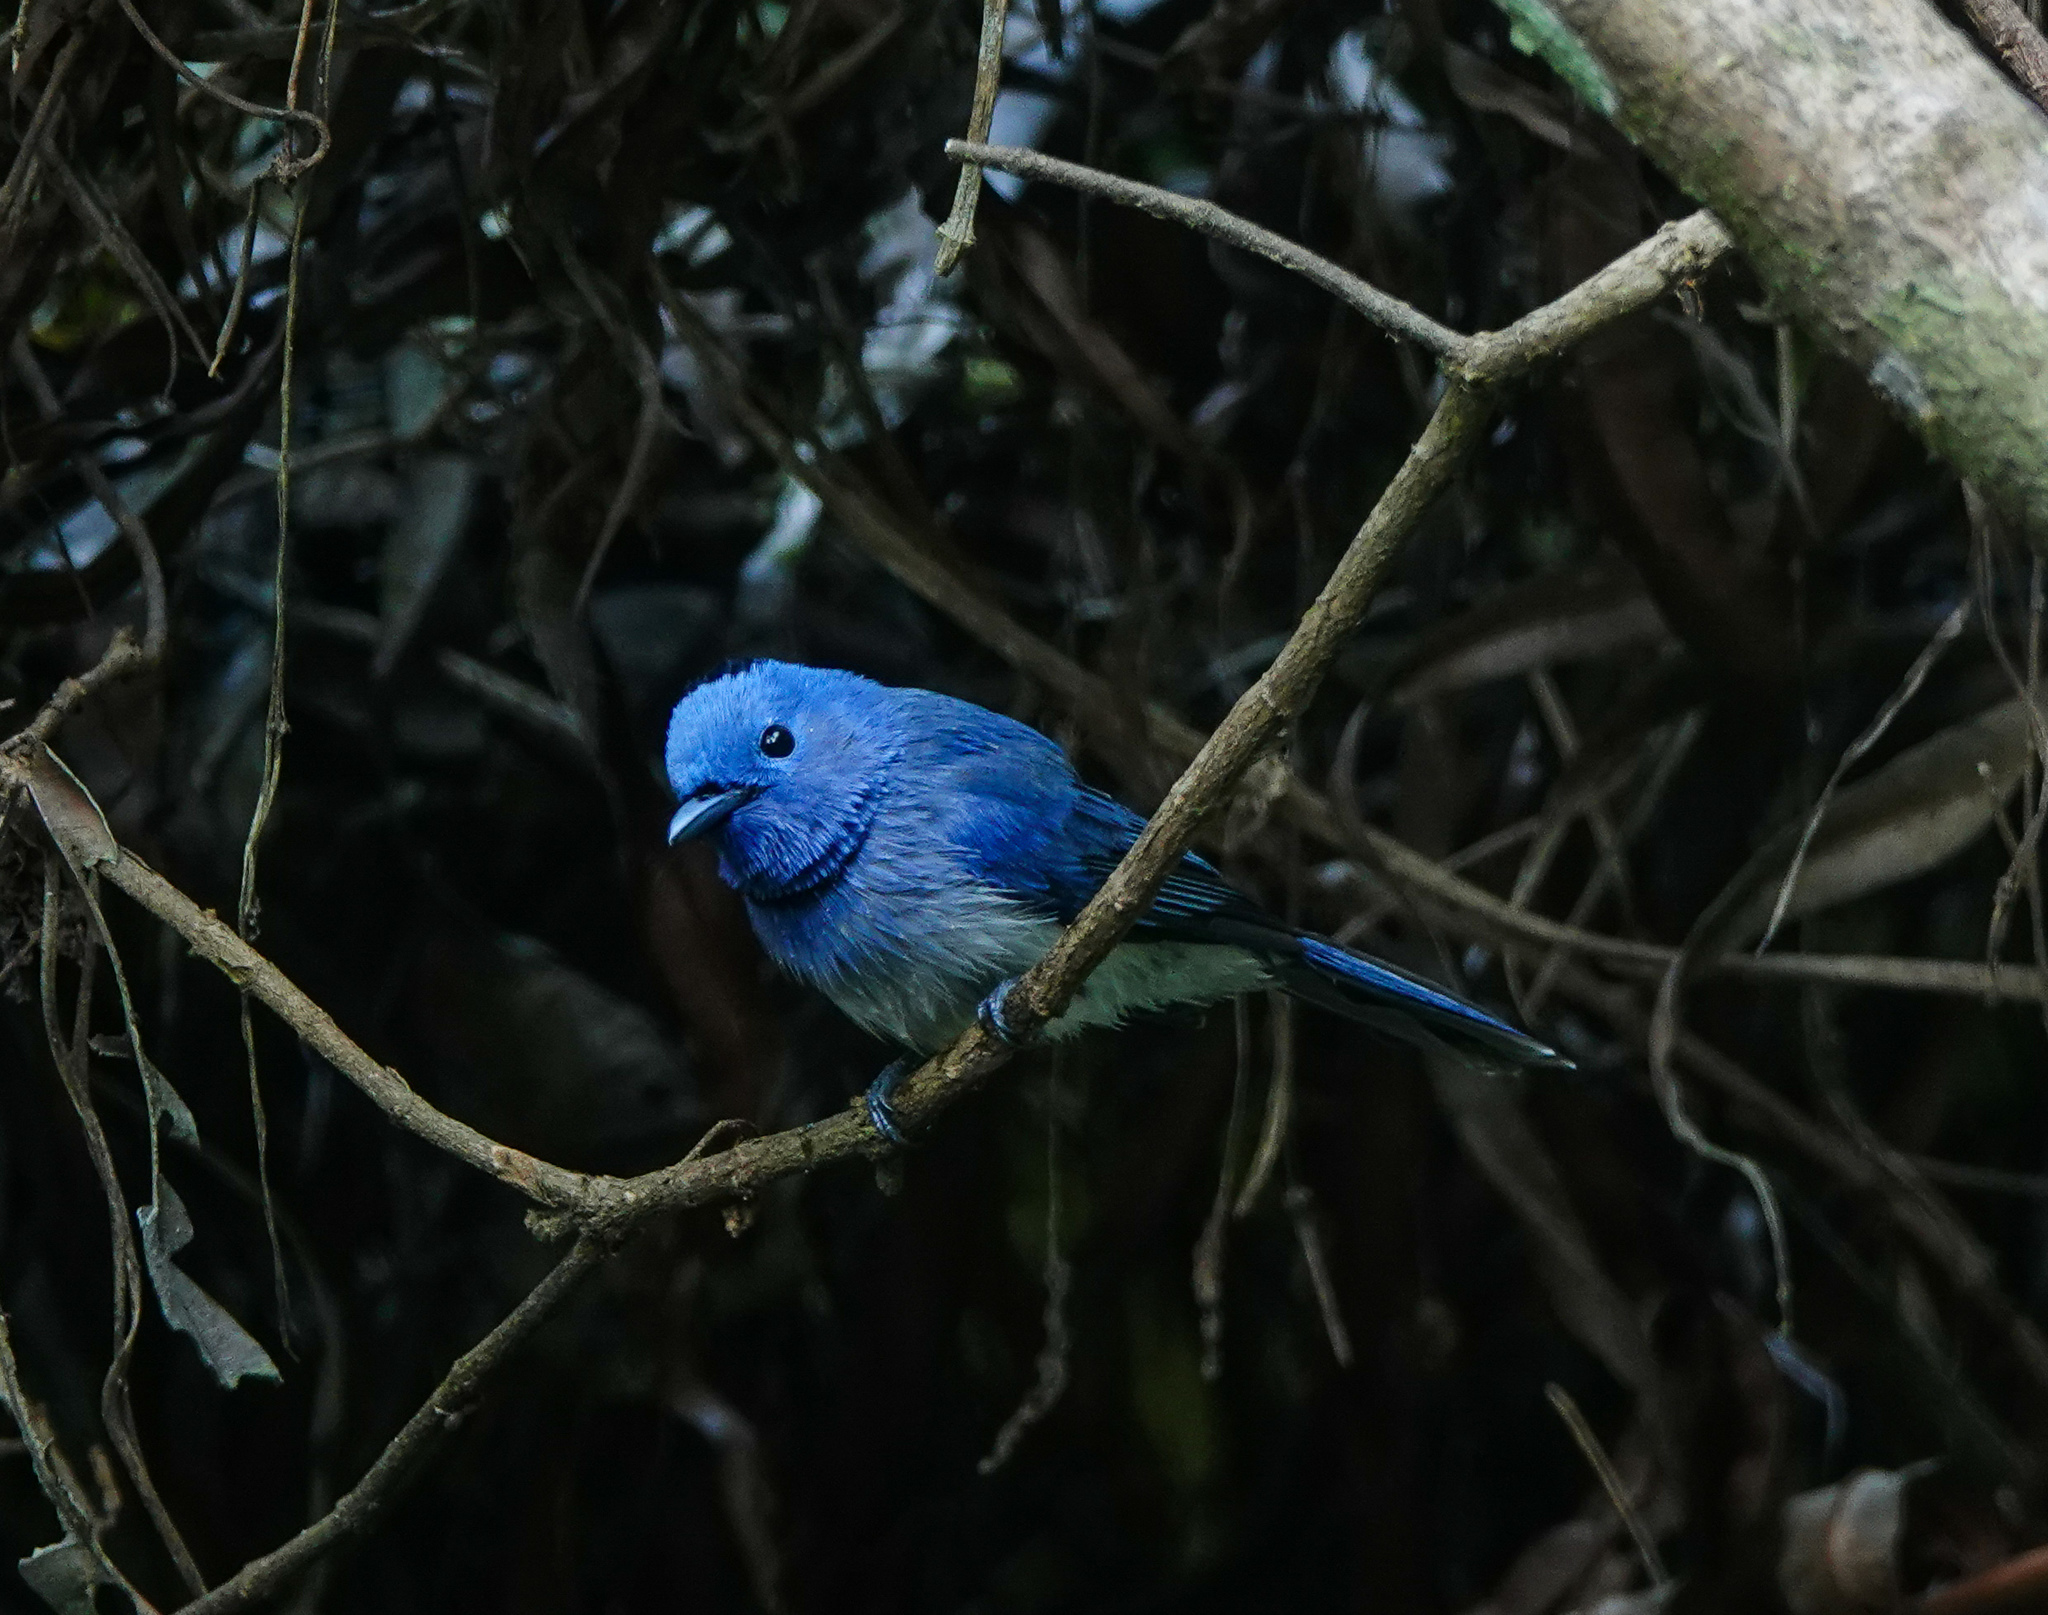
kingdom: Animalia
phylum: Chordata
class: Aves
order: Passeriformes
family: Monarchidae
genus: Hypothymis
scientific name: Hypothymis azurea
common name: Black-naped monarch
